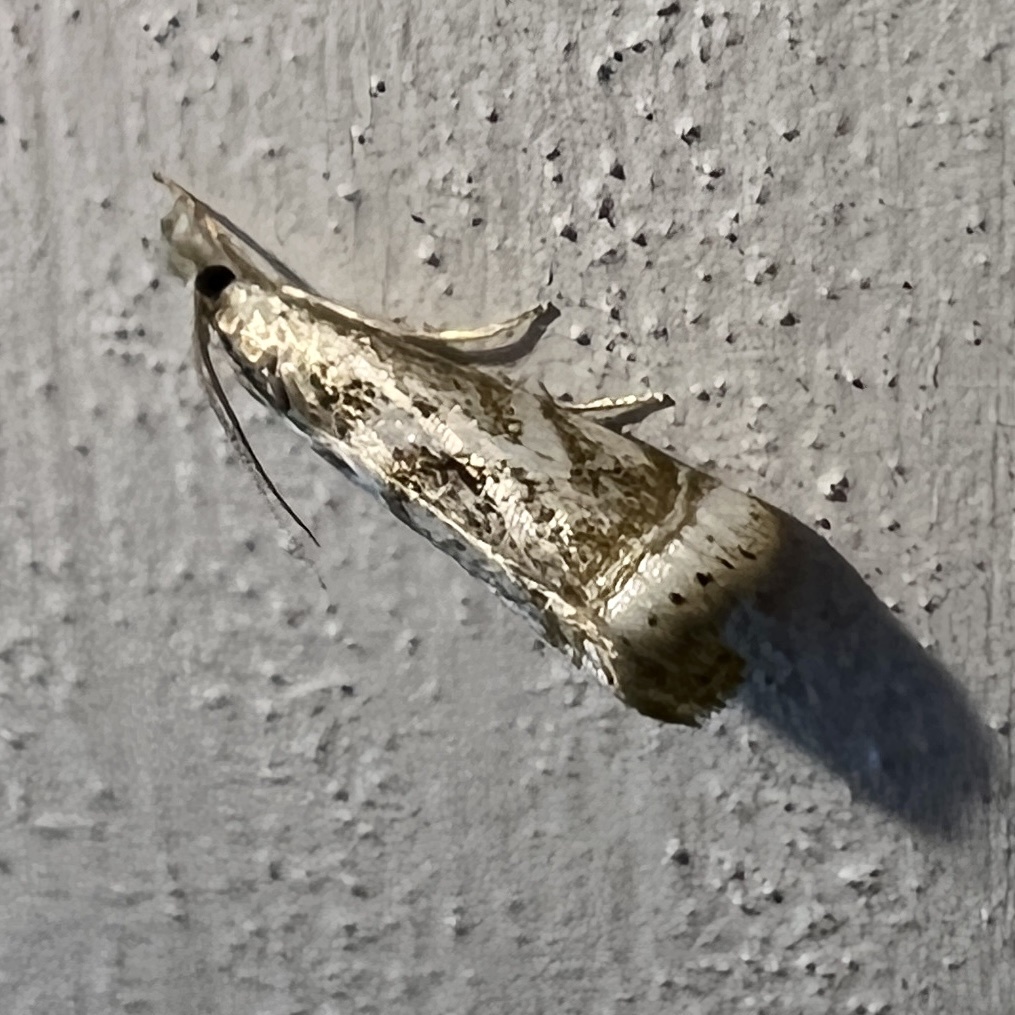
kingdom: Animalia
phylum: Arthropoda
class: Insecta
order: Lepidoptera
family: Crambidae
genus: Microcrambus
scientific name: Microcrambus elegans
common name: Elegant grass-veneer
